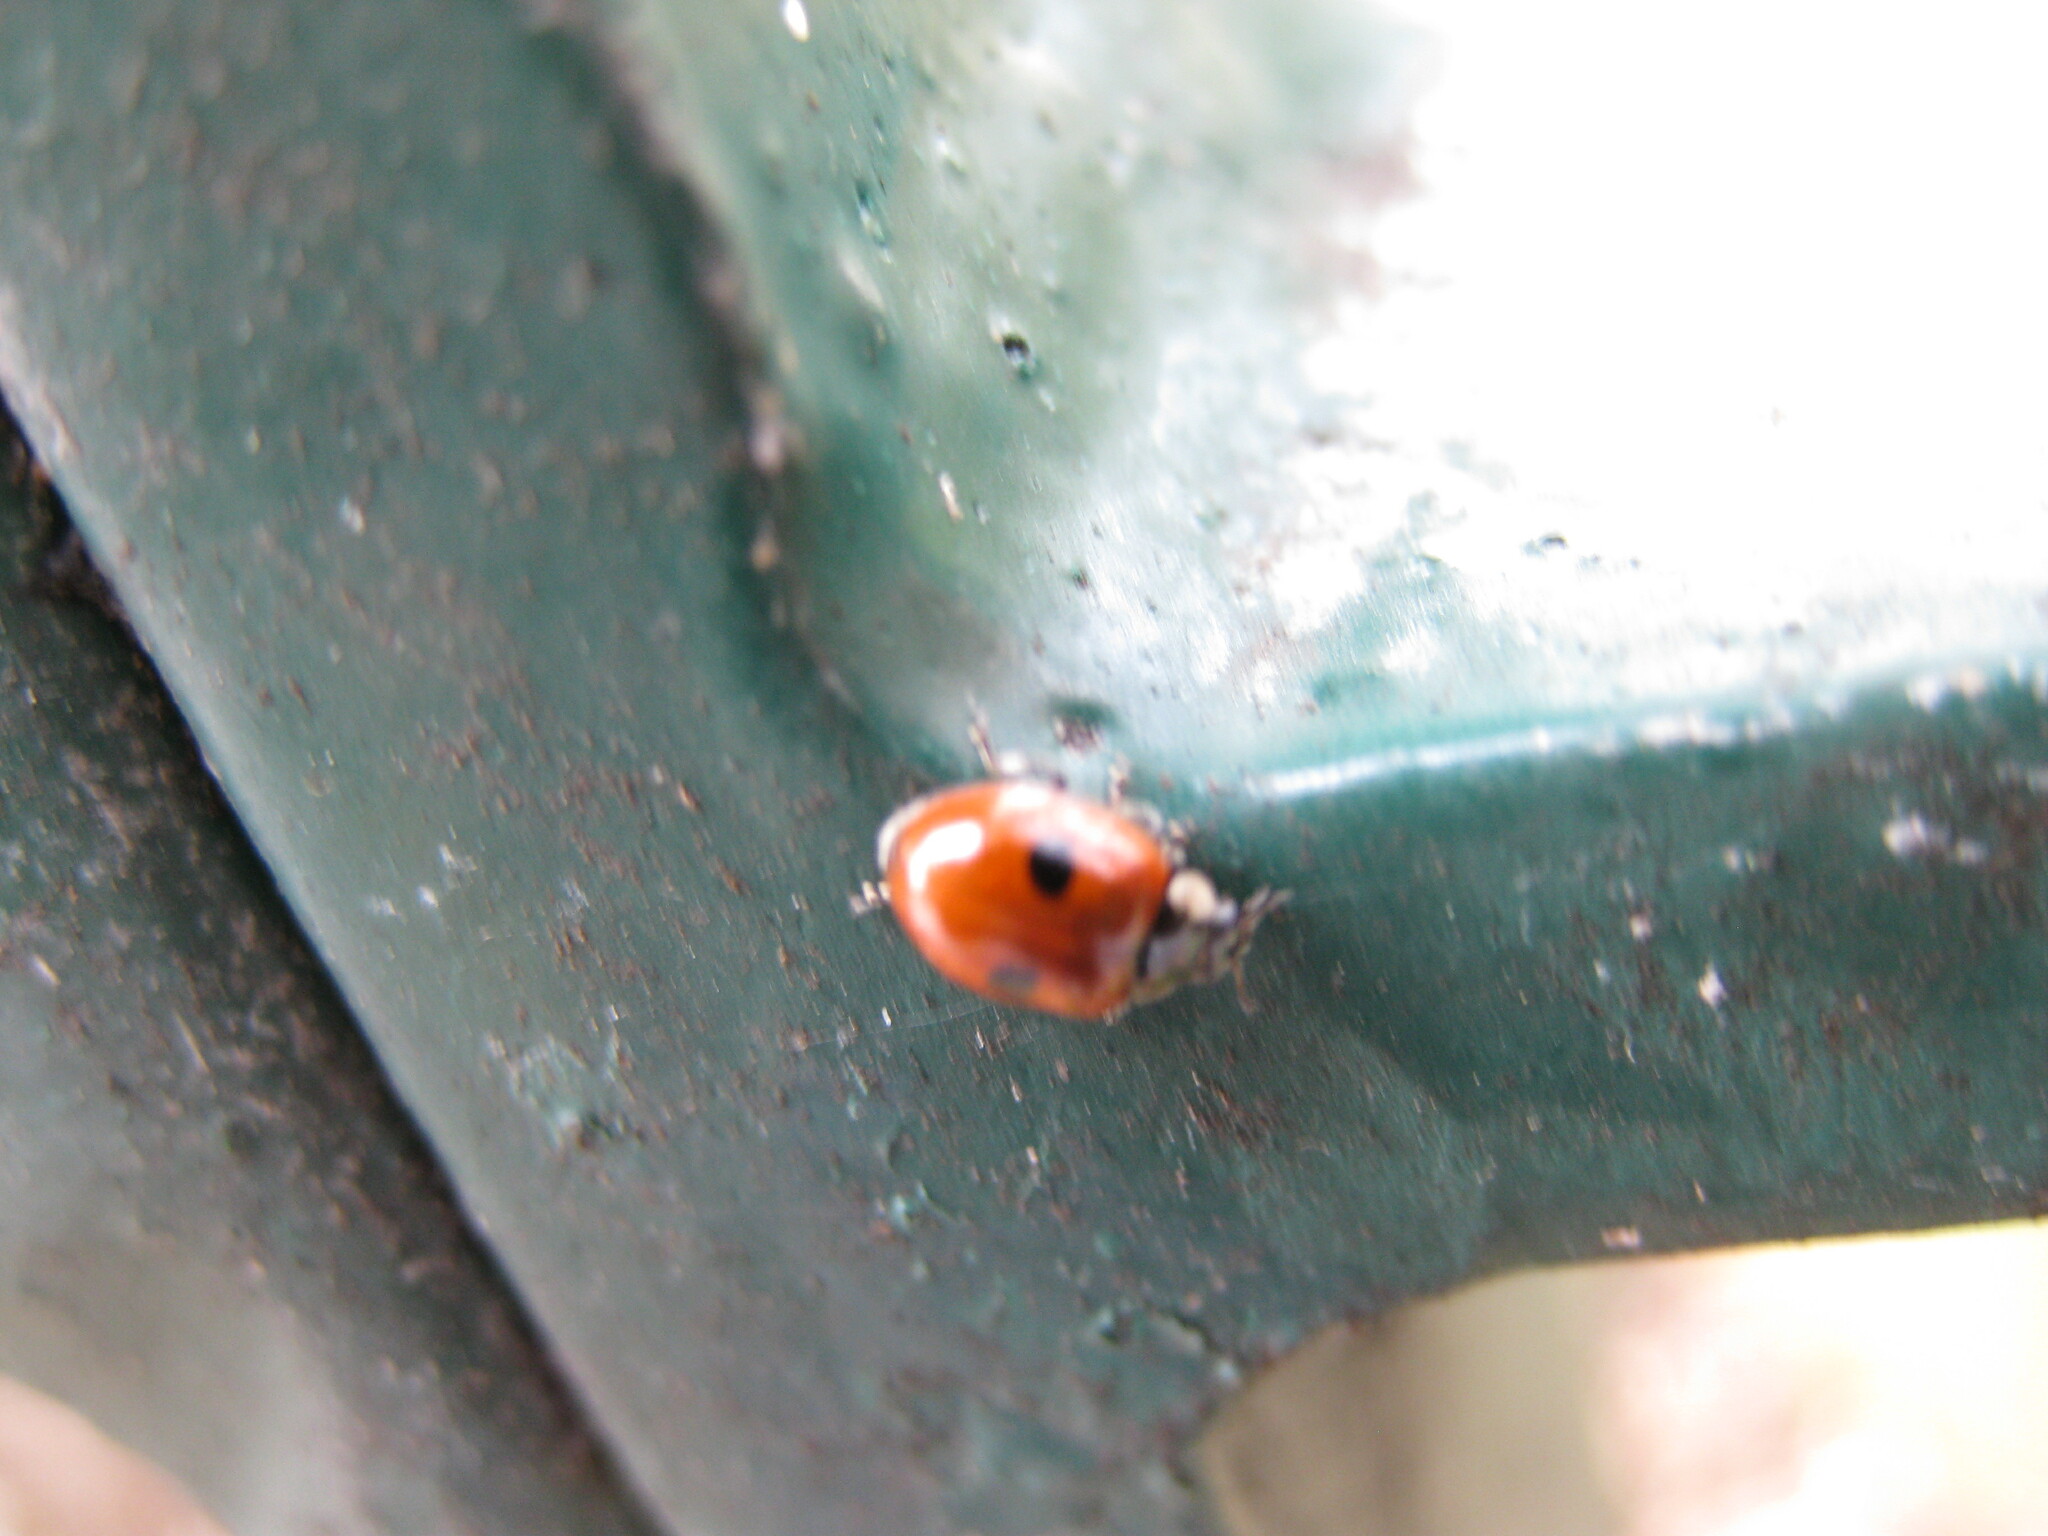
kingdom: Animalia
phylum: Arthropoda
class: Insecta
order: Coleoptera
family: Coccinellidae
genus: Adalia
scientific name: Adalia bipunctata
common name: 2-spot ladybird
